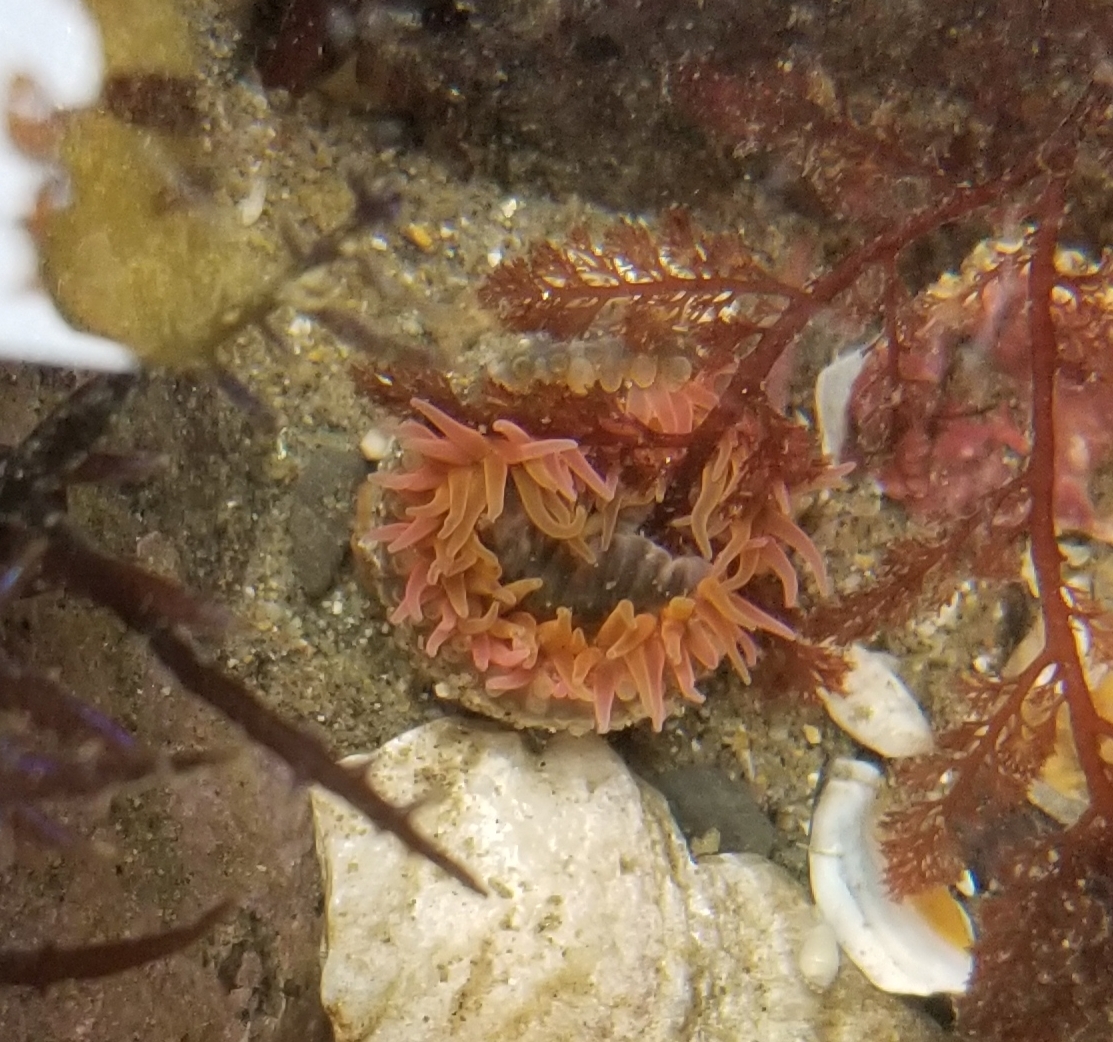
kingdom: Animalia
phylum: Cnidaria
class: Anthozoa
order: Actiniaria
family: Actiniidae
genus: Anthopleura
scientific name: Anthopleura artemisia
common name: Buried sea anemone
